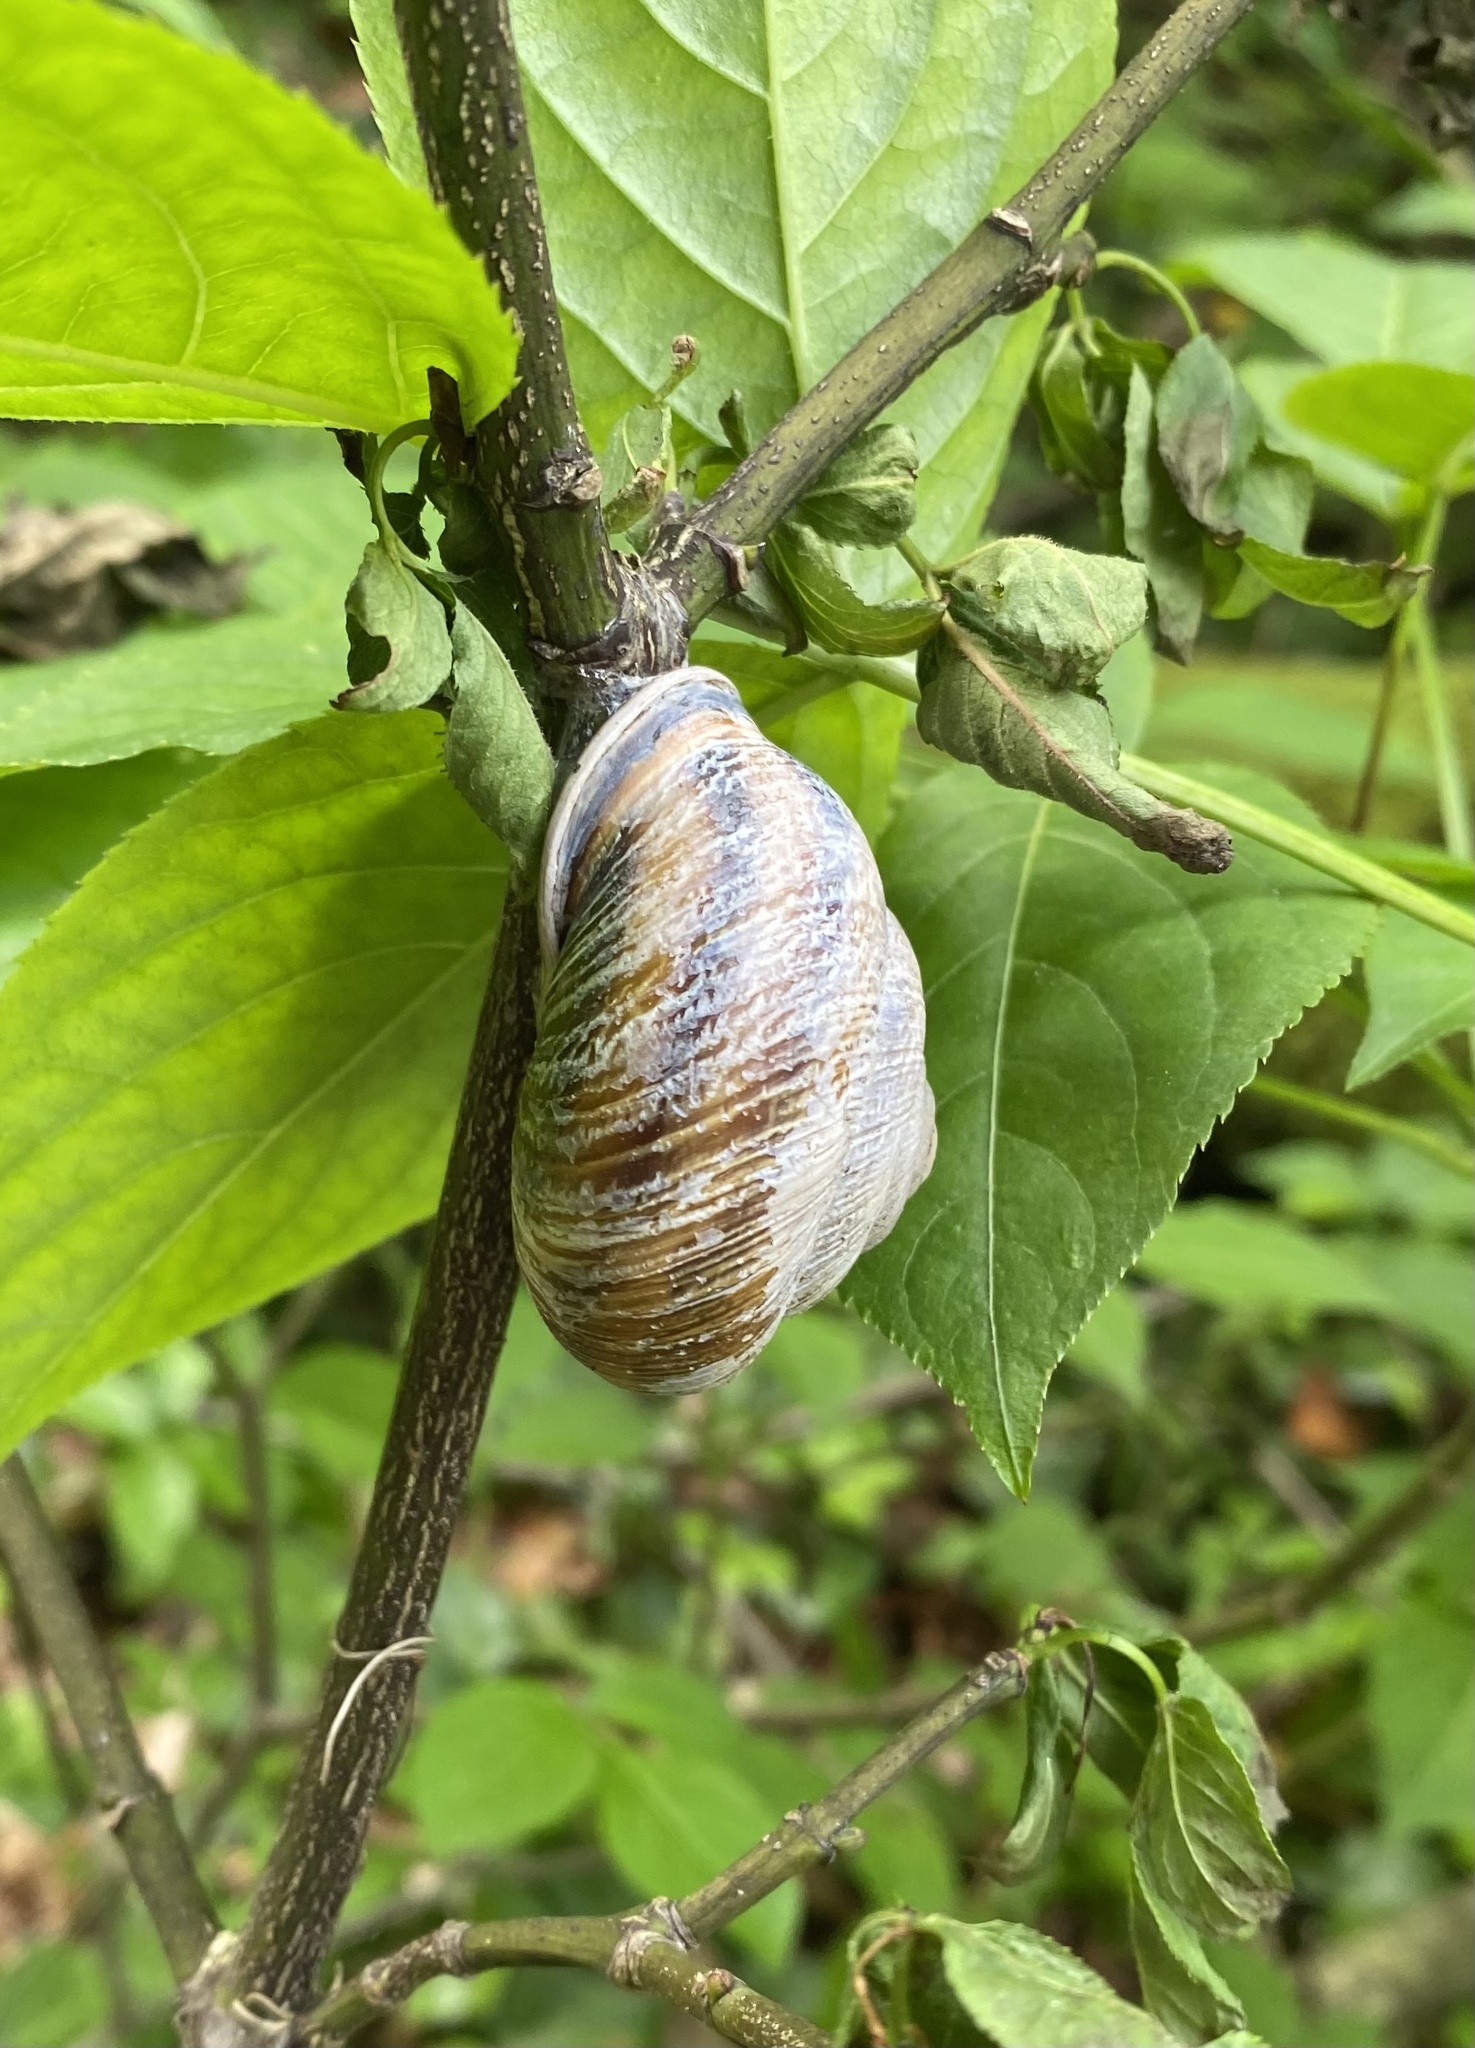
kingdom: Animalia
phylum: Mollusca
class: Gastropoda
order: Stylommatophora
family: Helicidae
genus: Caucasotachea
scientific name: Caucasotachea atrolabiata
